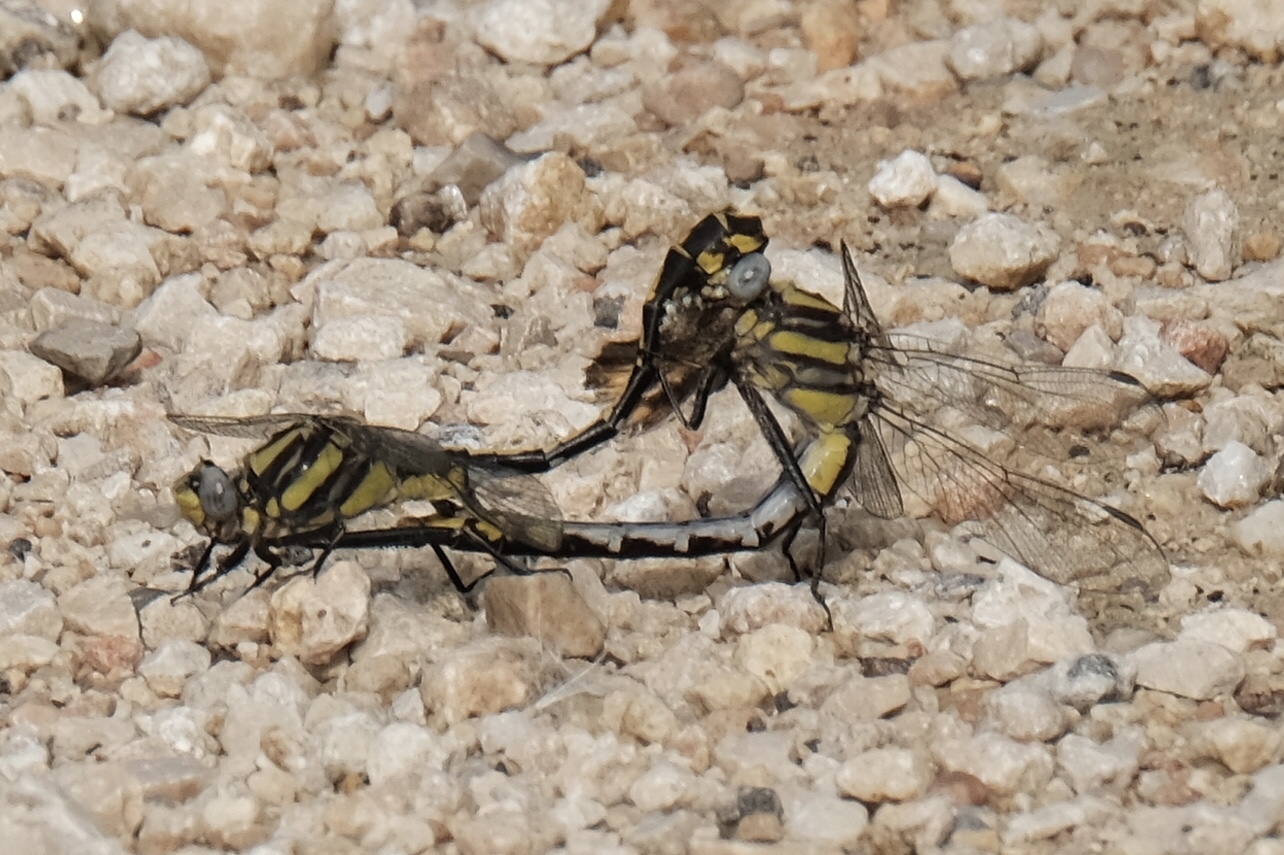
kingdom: Animalia
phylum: Arthropoda
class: Insecta
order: Odonata
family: Gomphidae
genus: Gomphurus
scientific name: Gomphurus externus
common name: Plains clubtail
